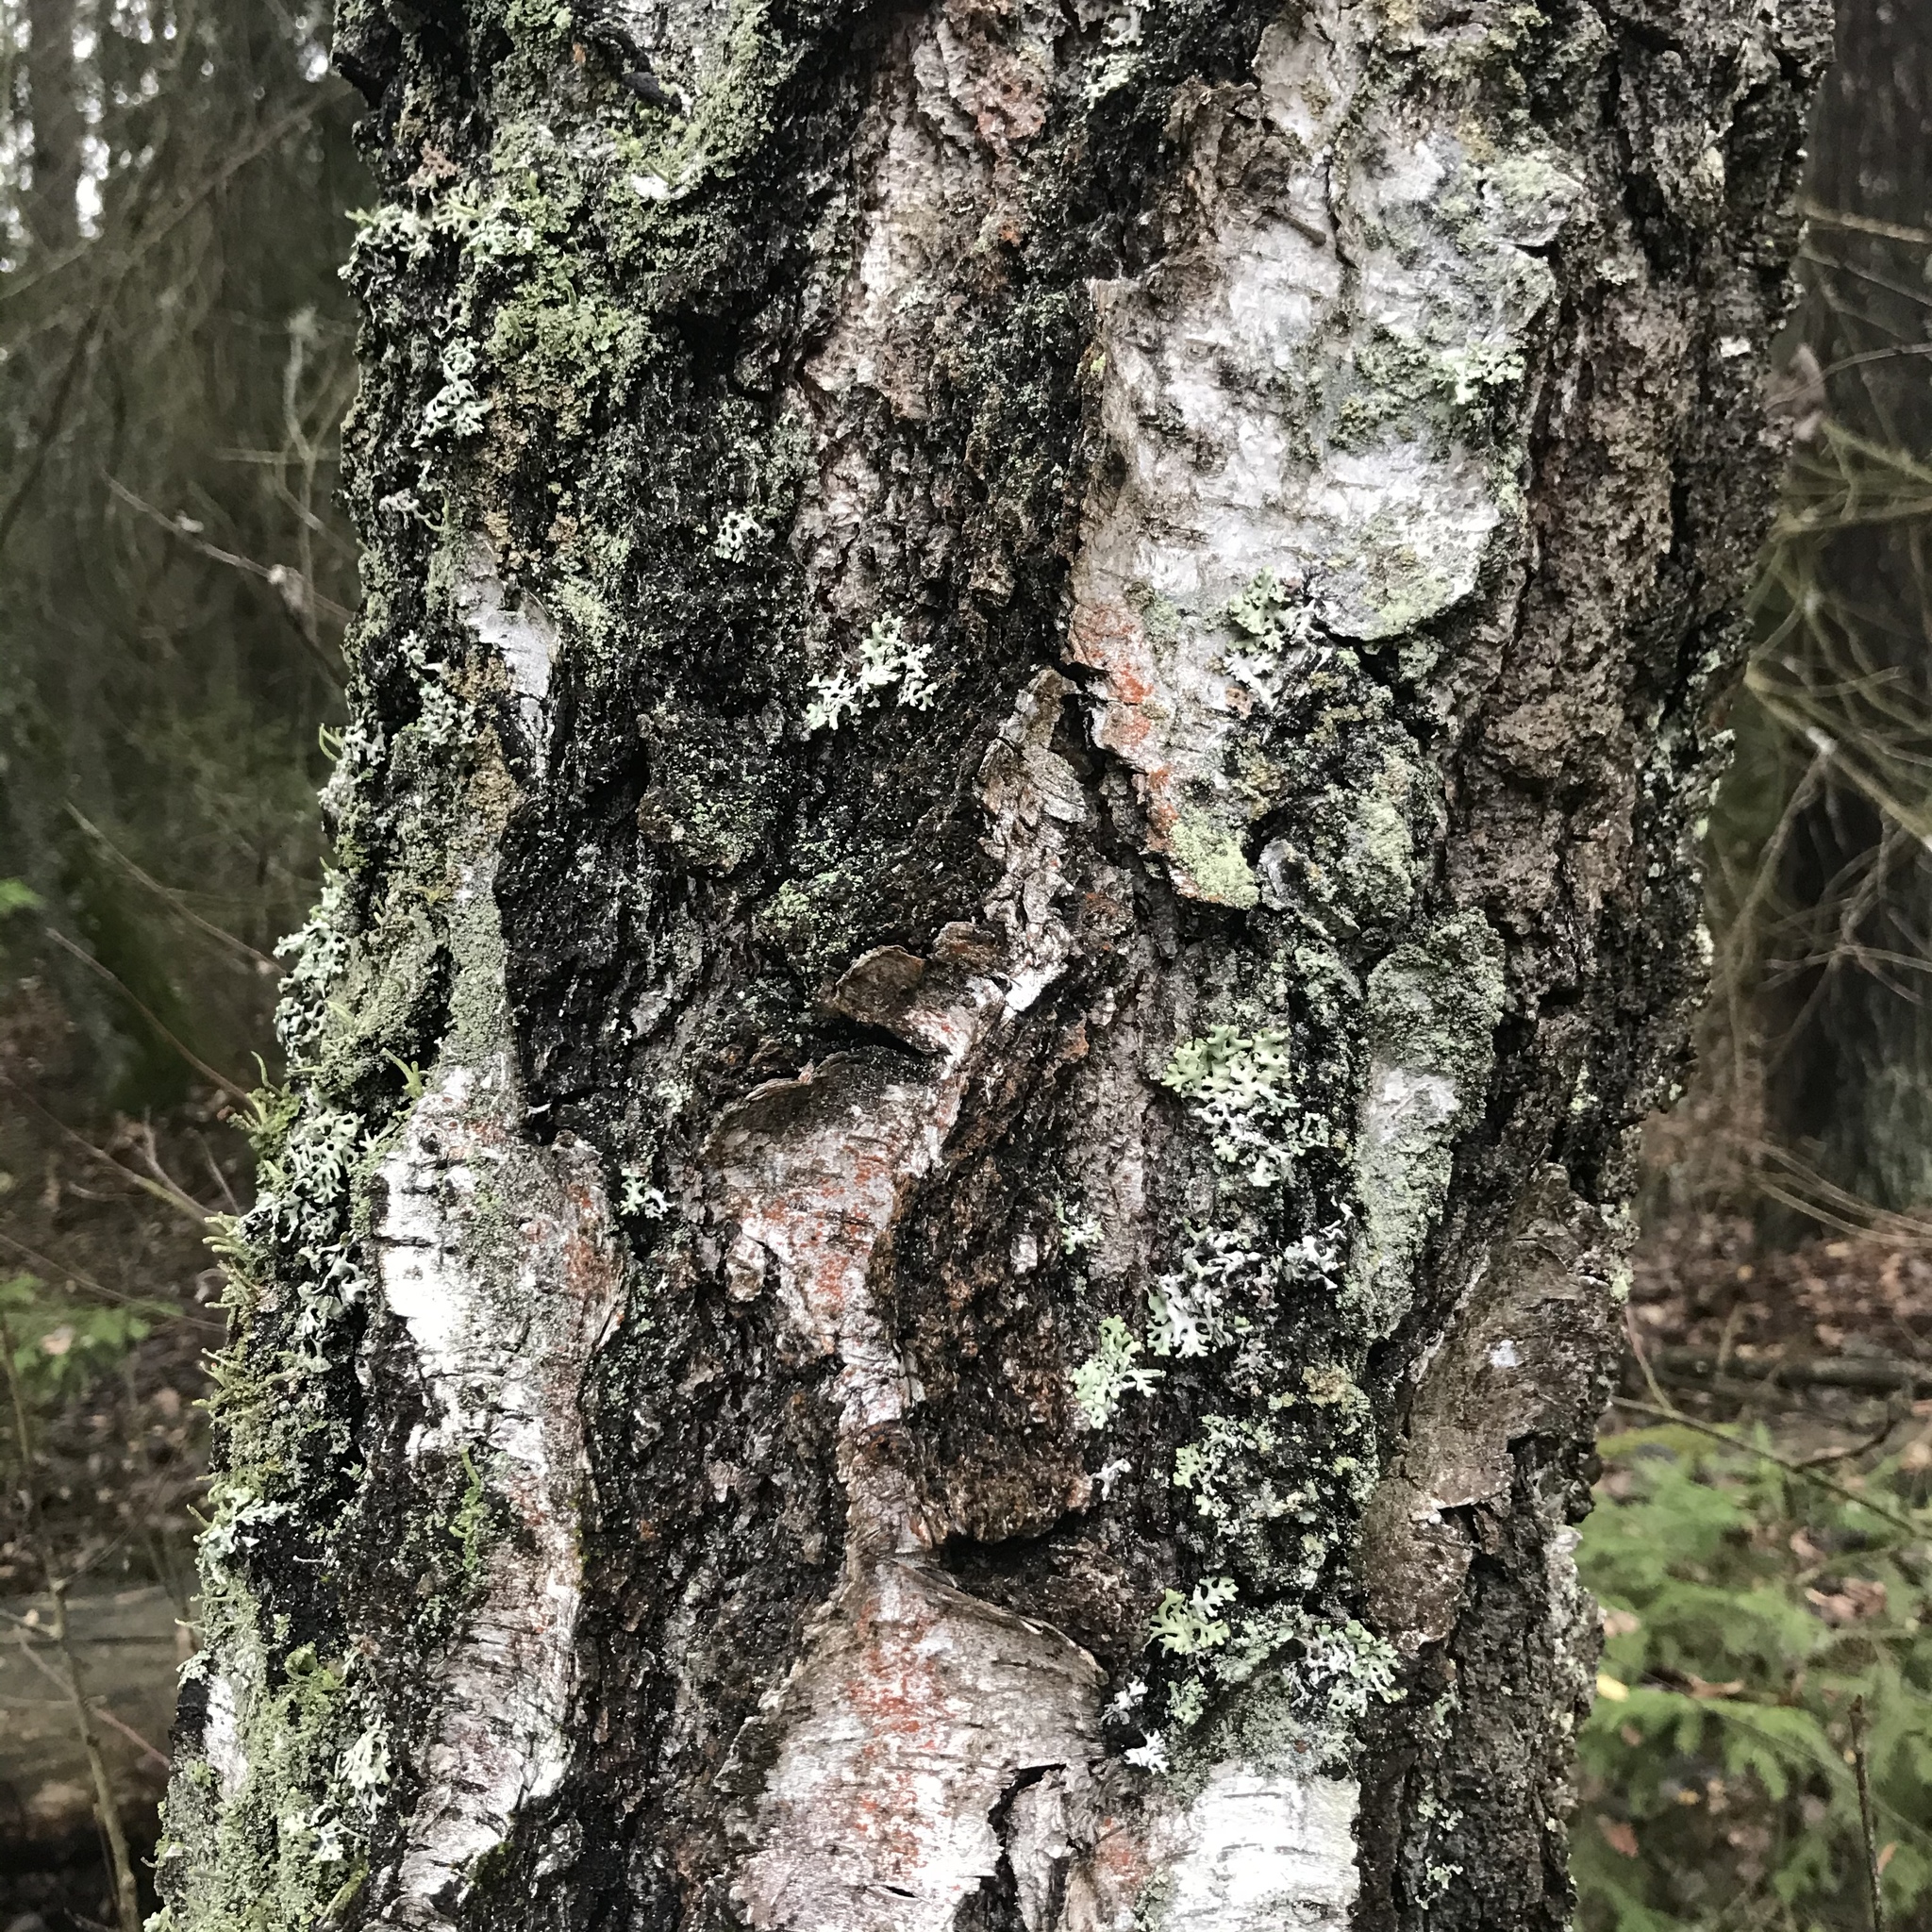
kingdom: Plantae
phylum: Tracheophyta
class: Magnoliopsida
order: Fagales
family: Betulaceae
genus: Betula
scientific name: Betula pendula
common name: Silver birch
